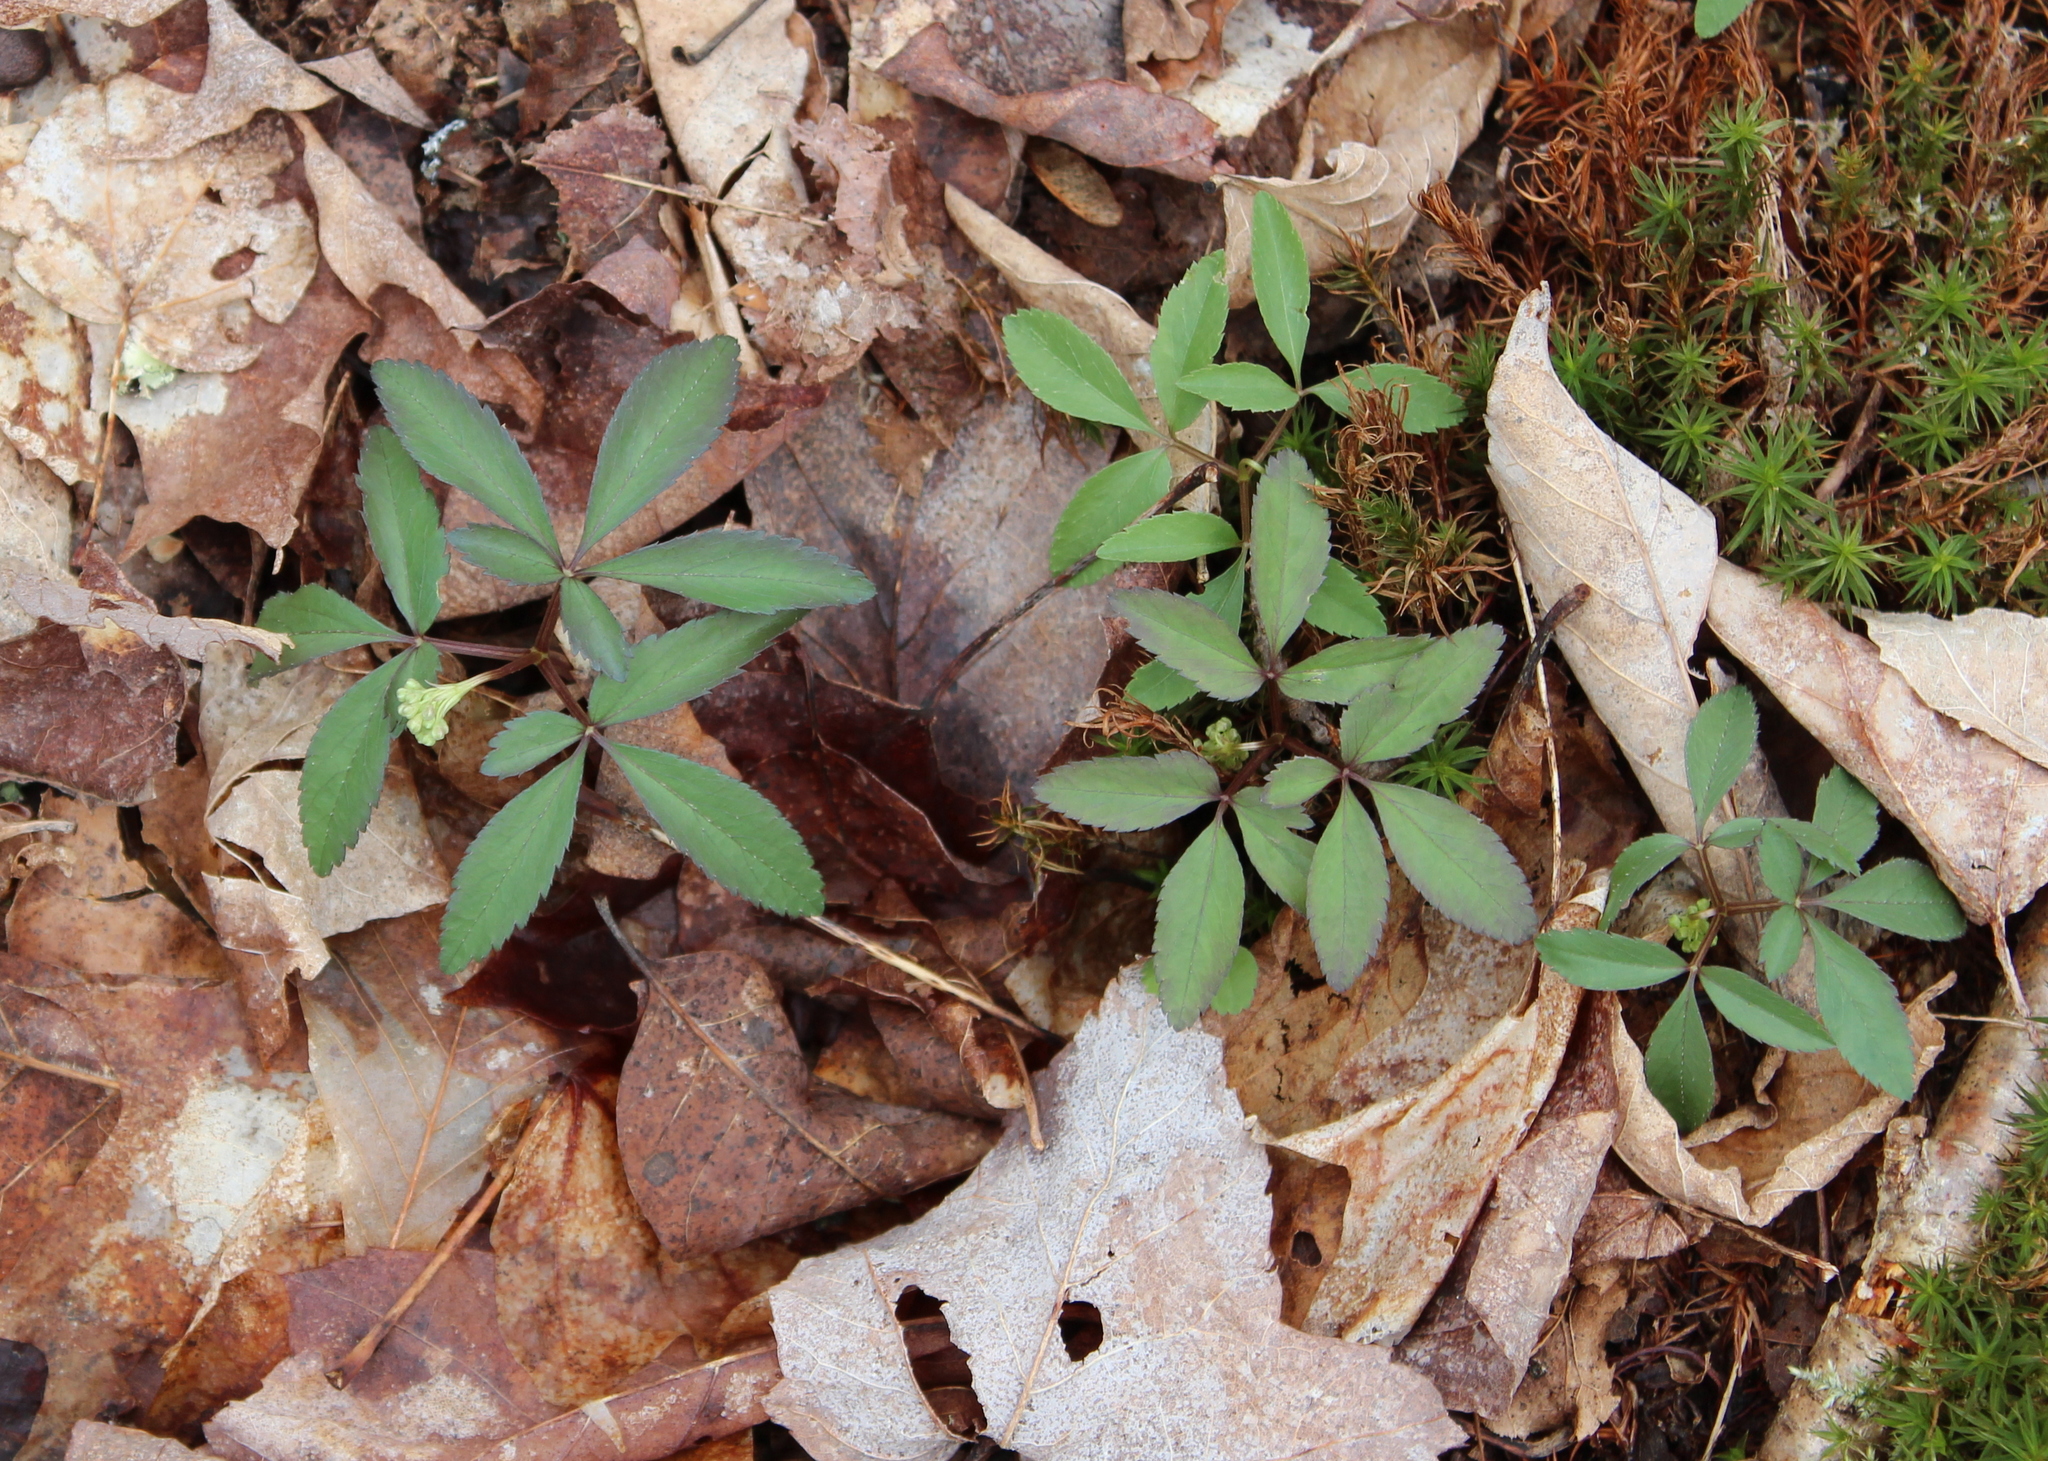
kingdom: Plantae
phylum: Tracheophyta
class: Magnoliopsida
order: Apiales
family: Araliaceae
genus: Panax
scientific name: Panax trifolius
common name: Dwarf ginseng
